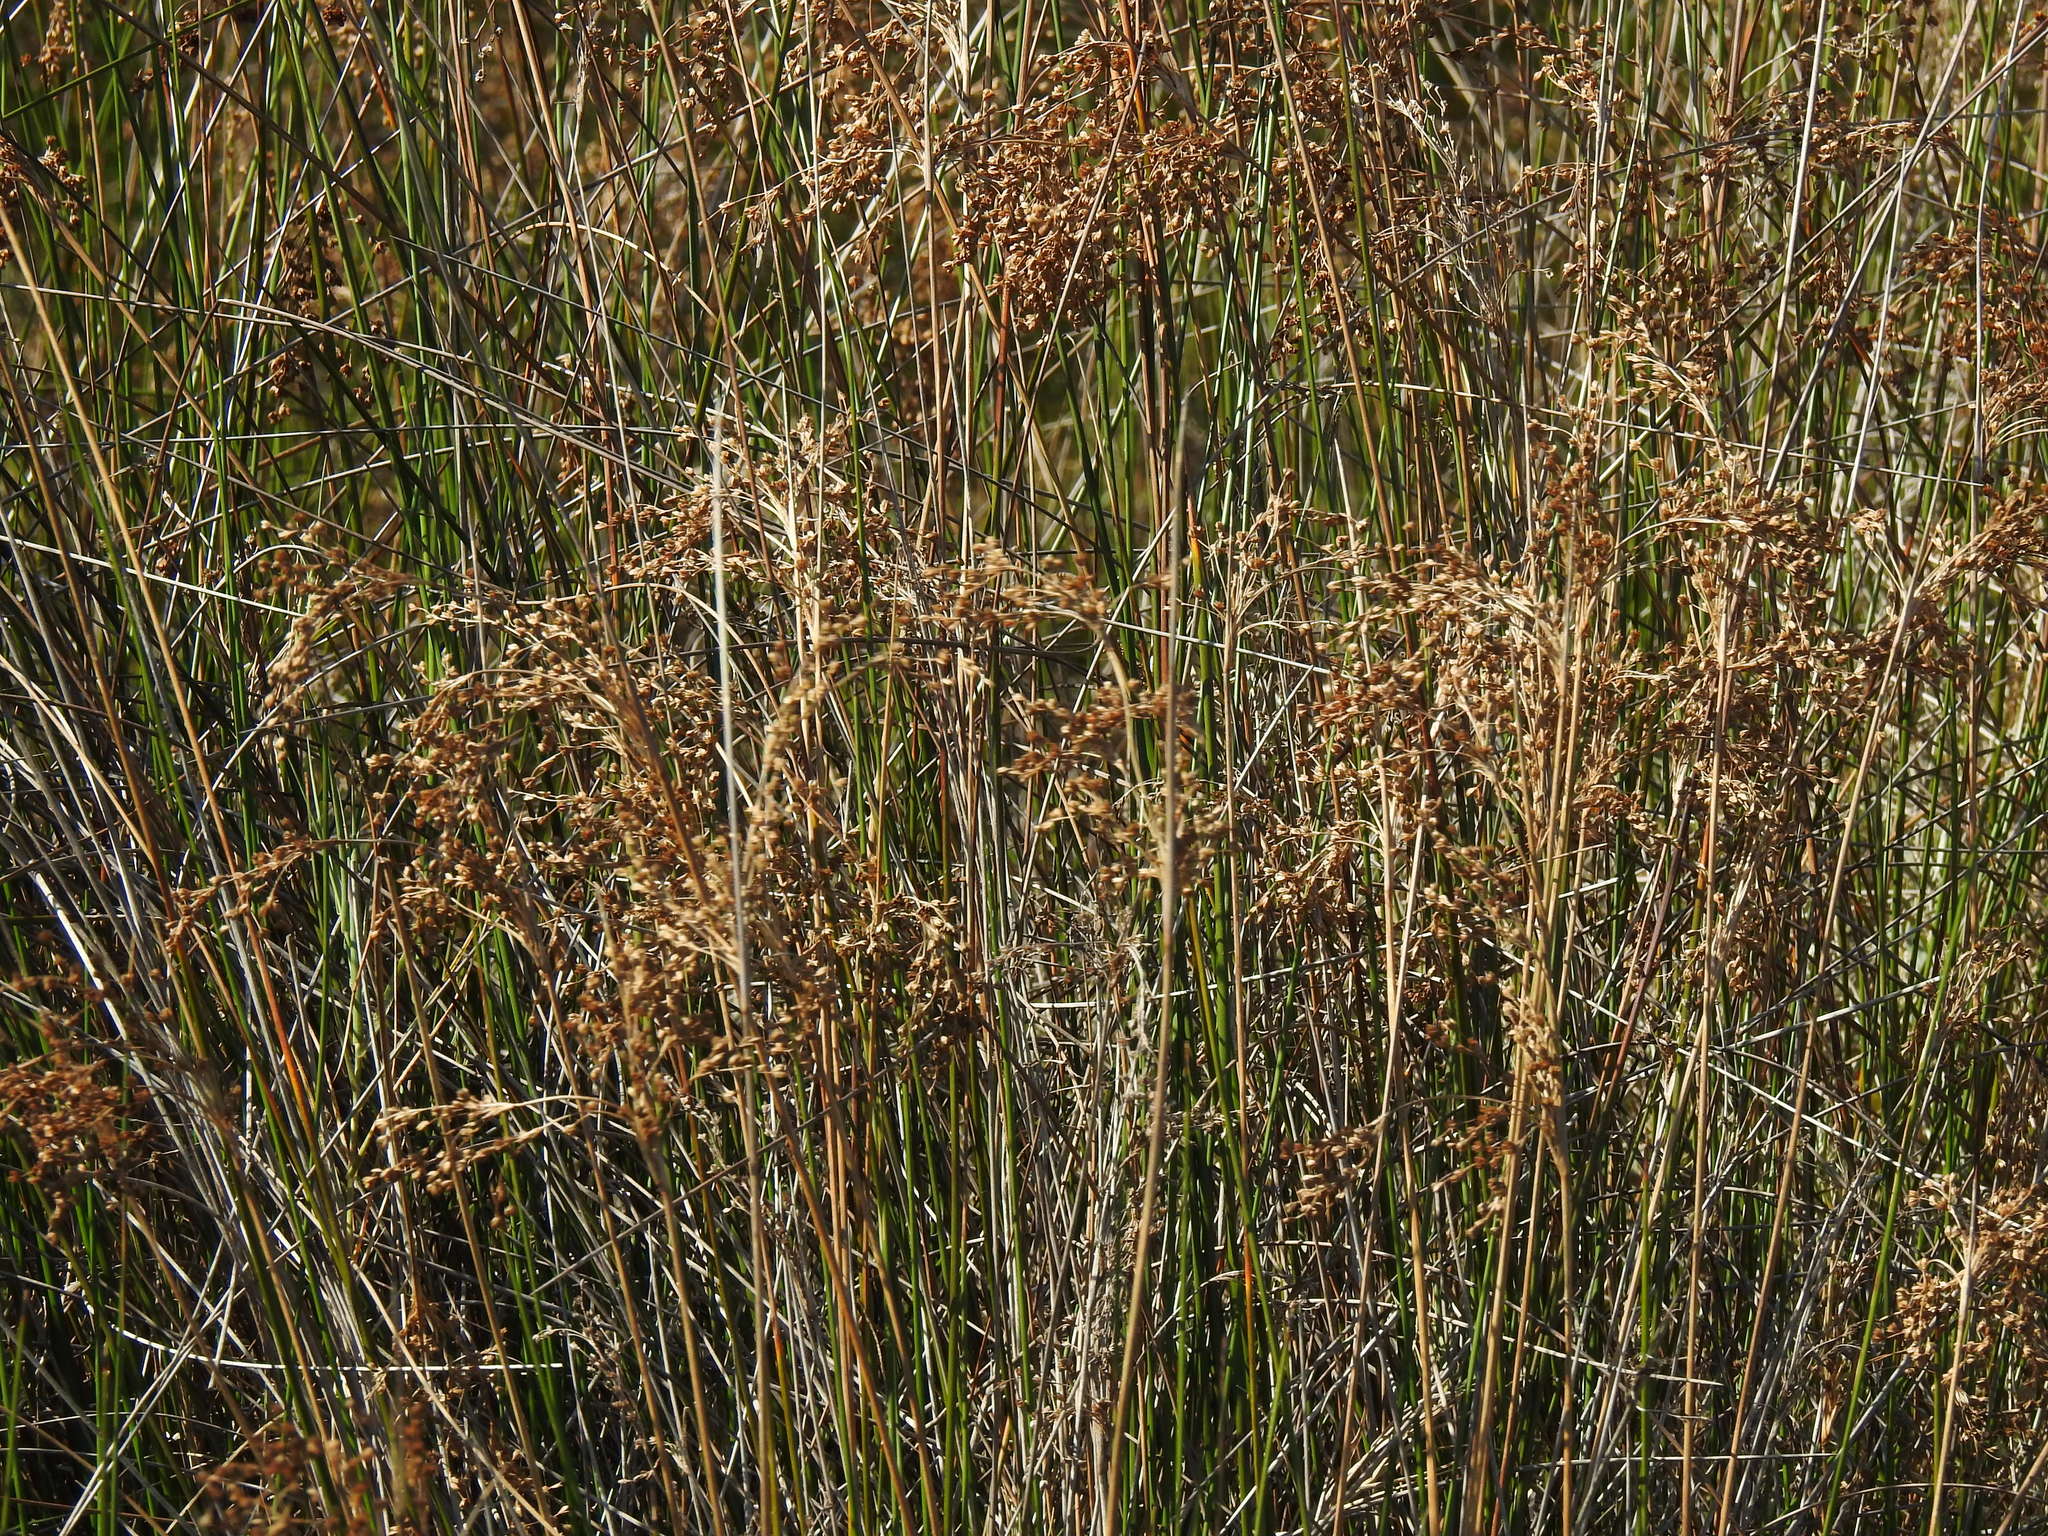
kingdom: Plantae
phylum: Tracheophyta
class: Liliopsida
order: Poales
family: Juncaceae
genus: Juncus
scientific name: Juncus maritimus
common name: Sea rush
